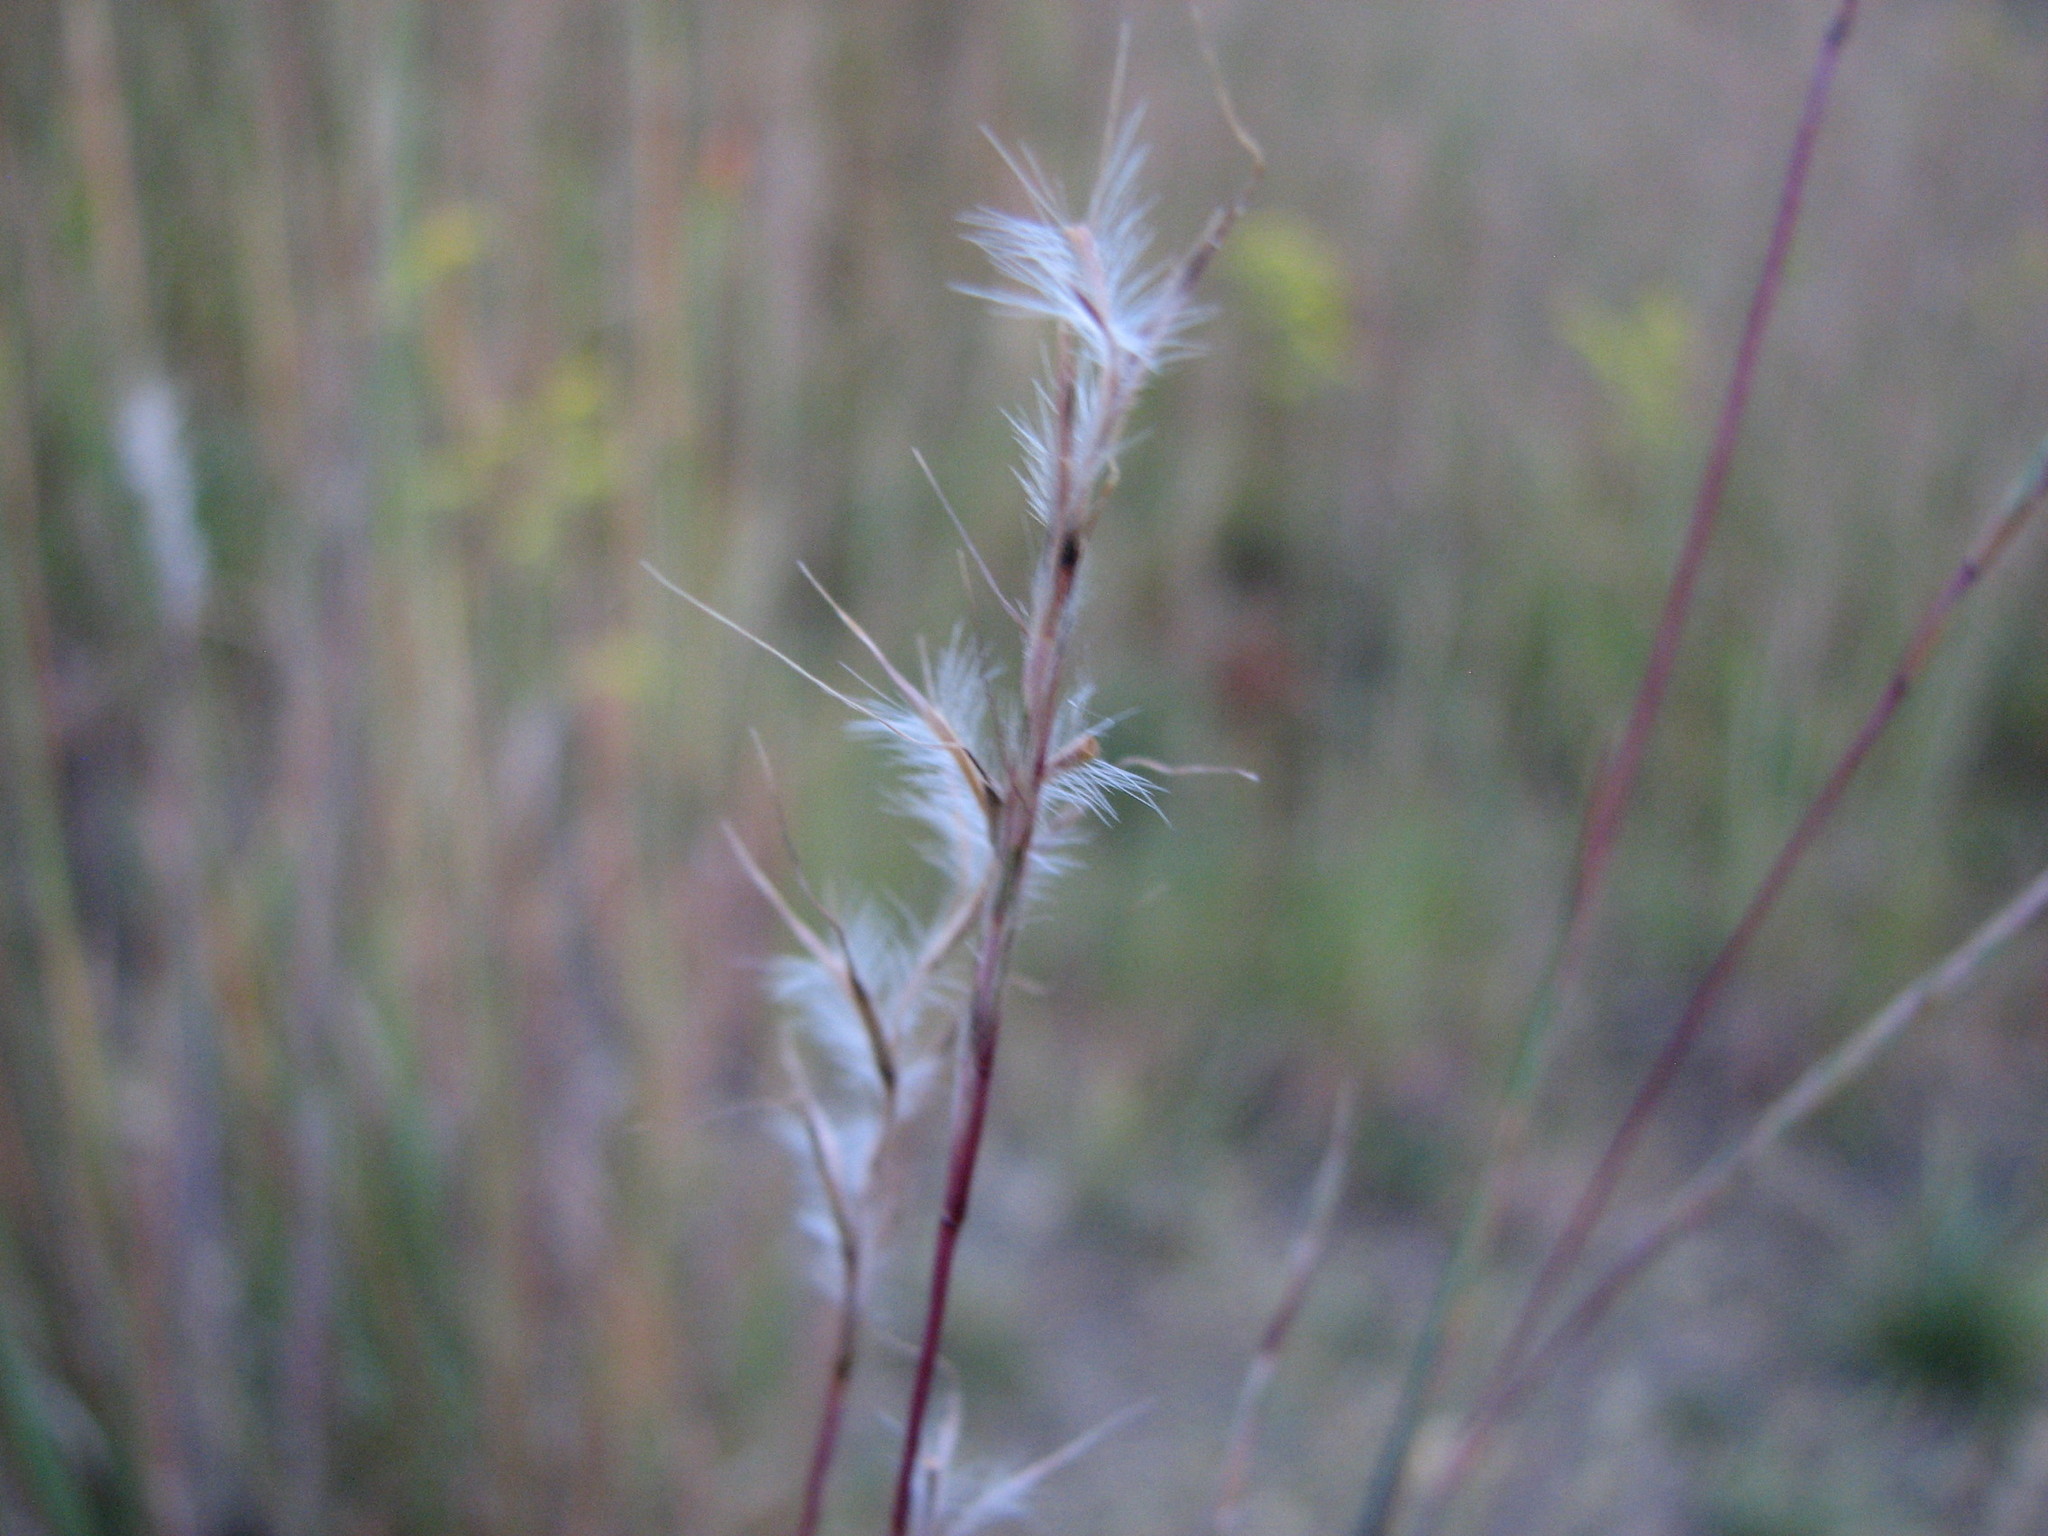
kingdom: Plantae
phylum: Tracheophyta
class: Liliopsida
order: Poales
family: Poaceae
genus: Schizachyrium
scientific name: Schizachyrium scoparium
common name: Little bluestem
